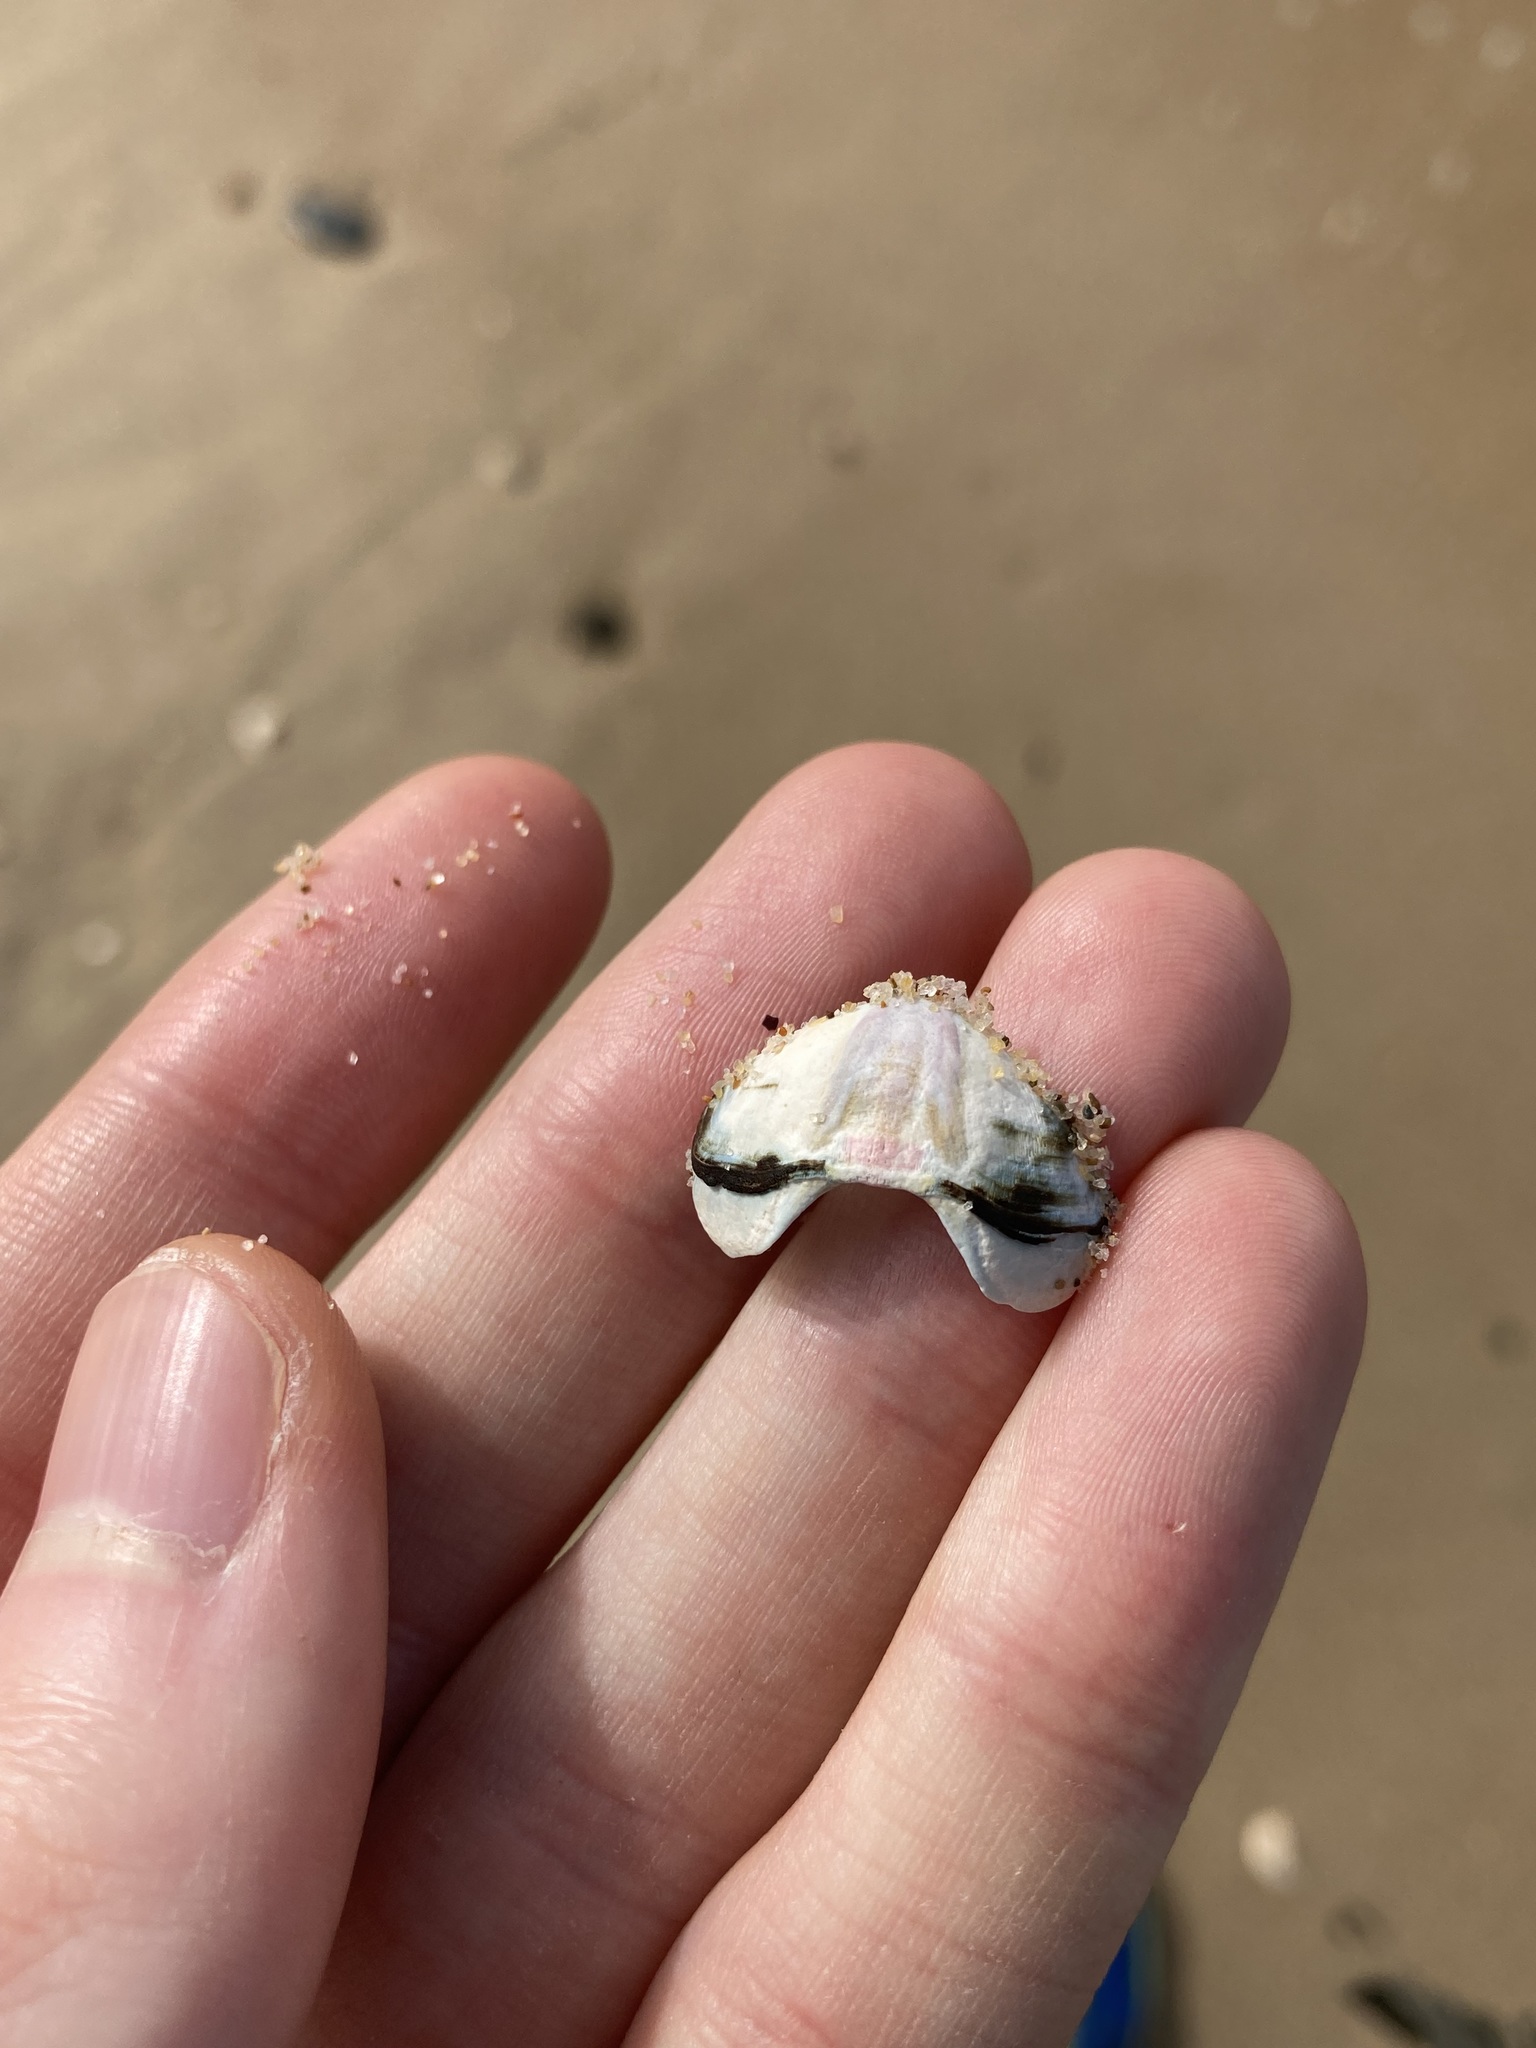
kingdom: Animalia
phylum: Mollusca
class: Polyplacophora
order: Chitonida
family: Mopaliidae
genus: Plaxiphora
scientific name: Plaxiphora albida
